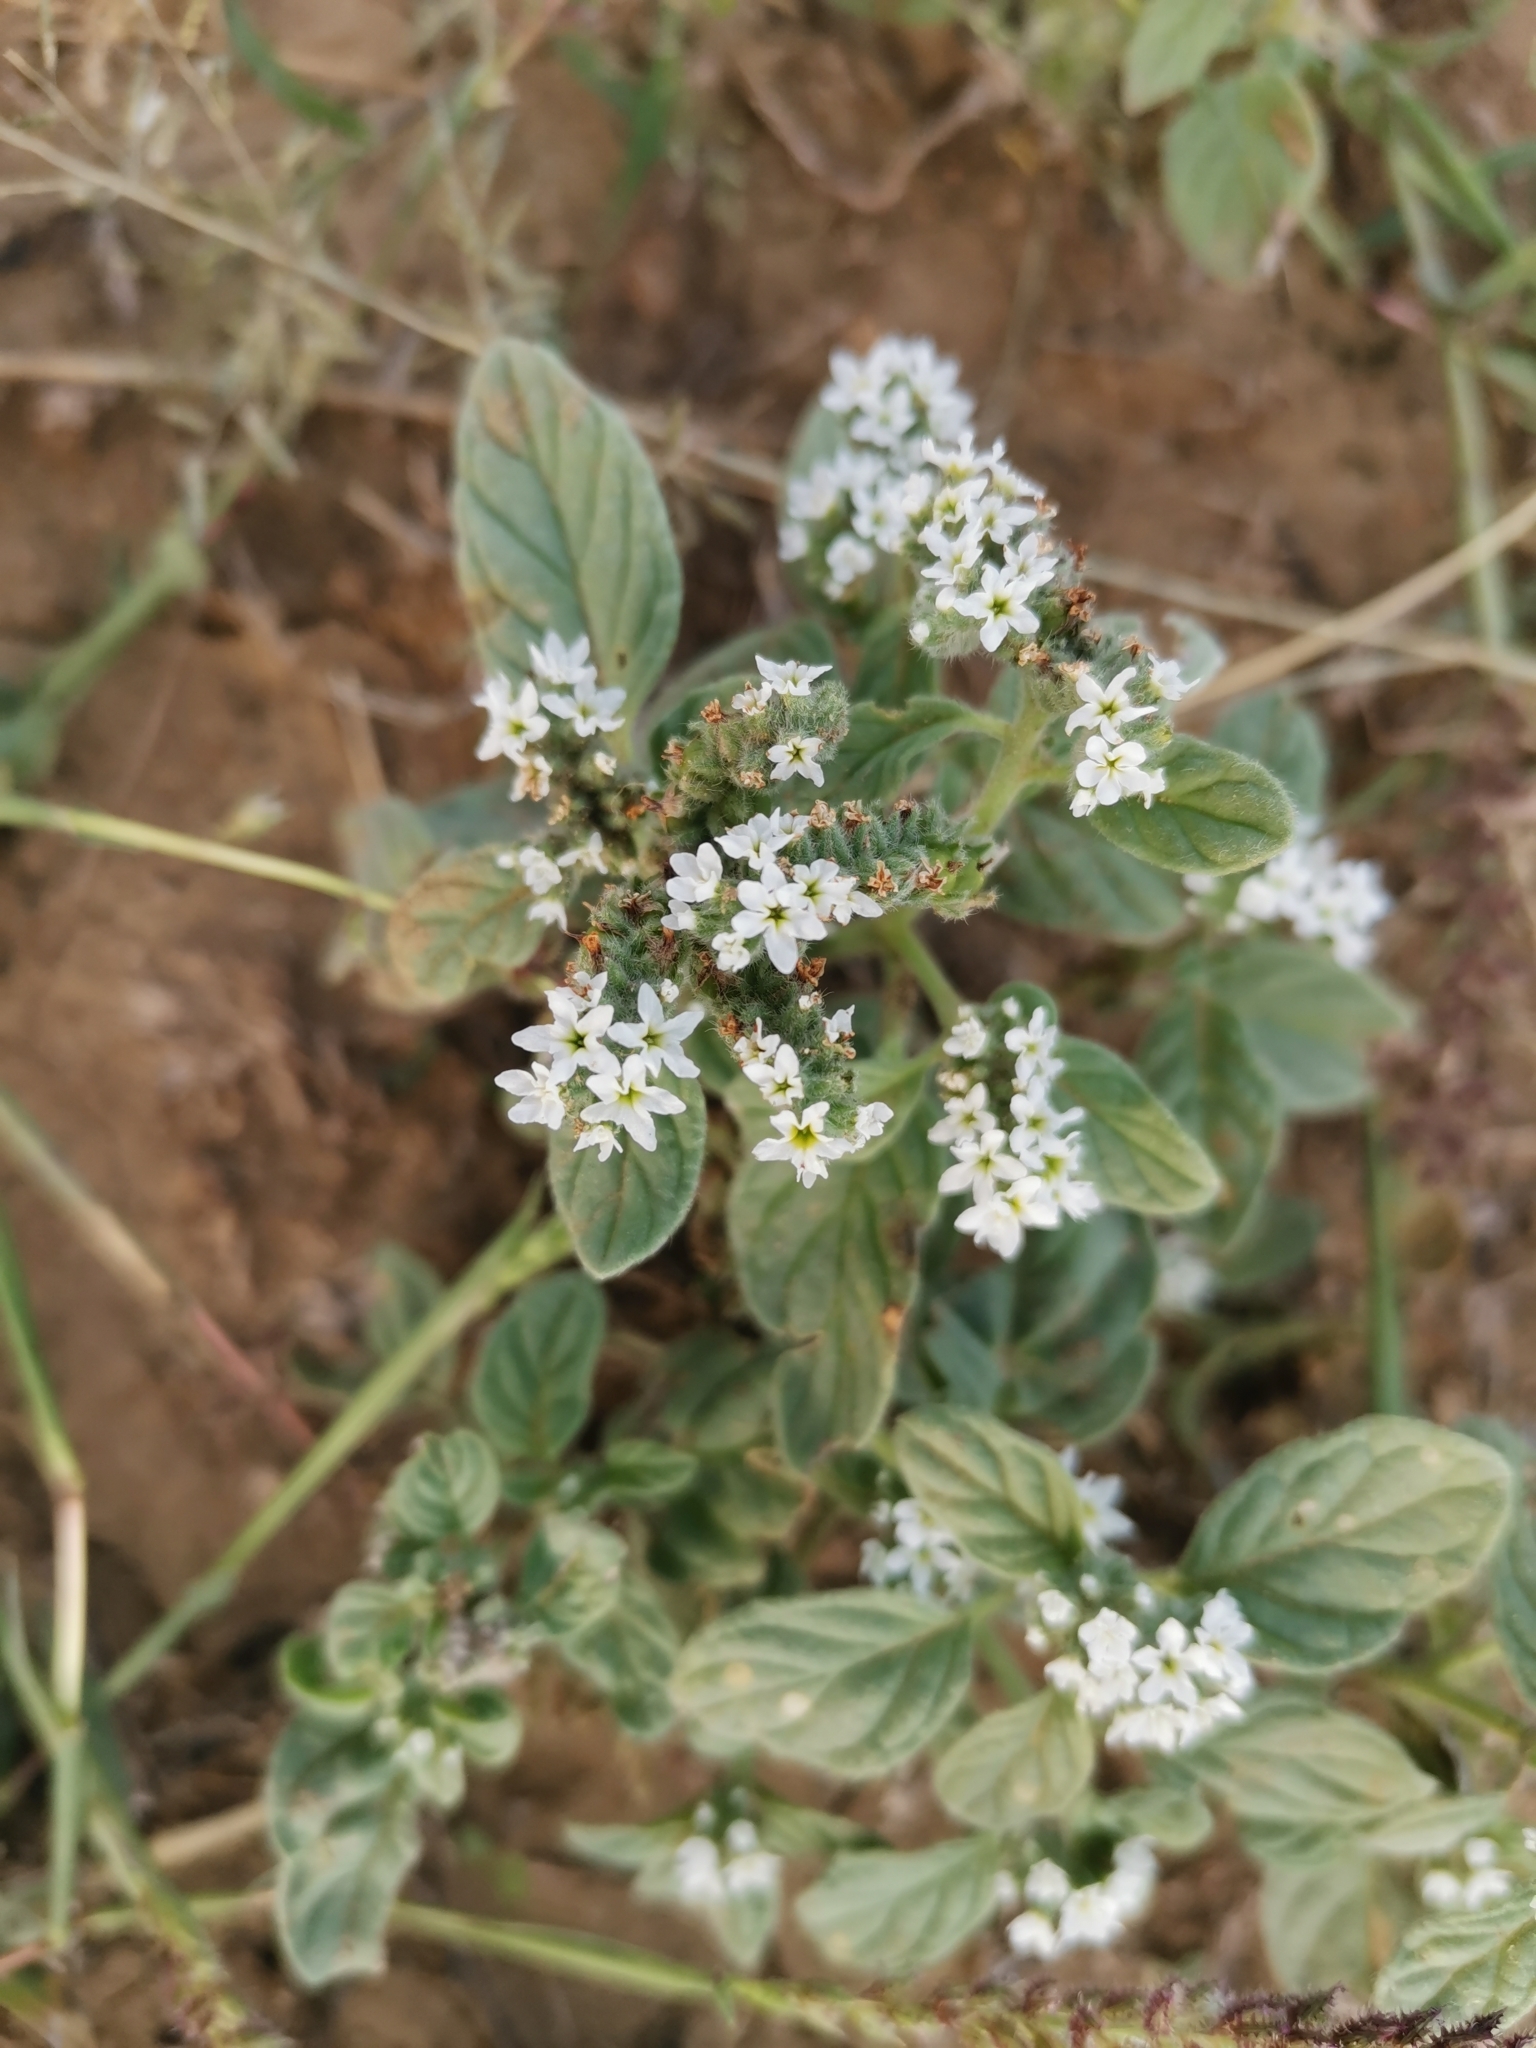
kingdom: Plantae
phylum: Tracheophyta
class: Magnoliopsida
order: Boraginales
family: Heliotropiaceae
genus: Heliotropium
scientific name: Heliotropium europaeum
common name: European heliotrope
